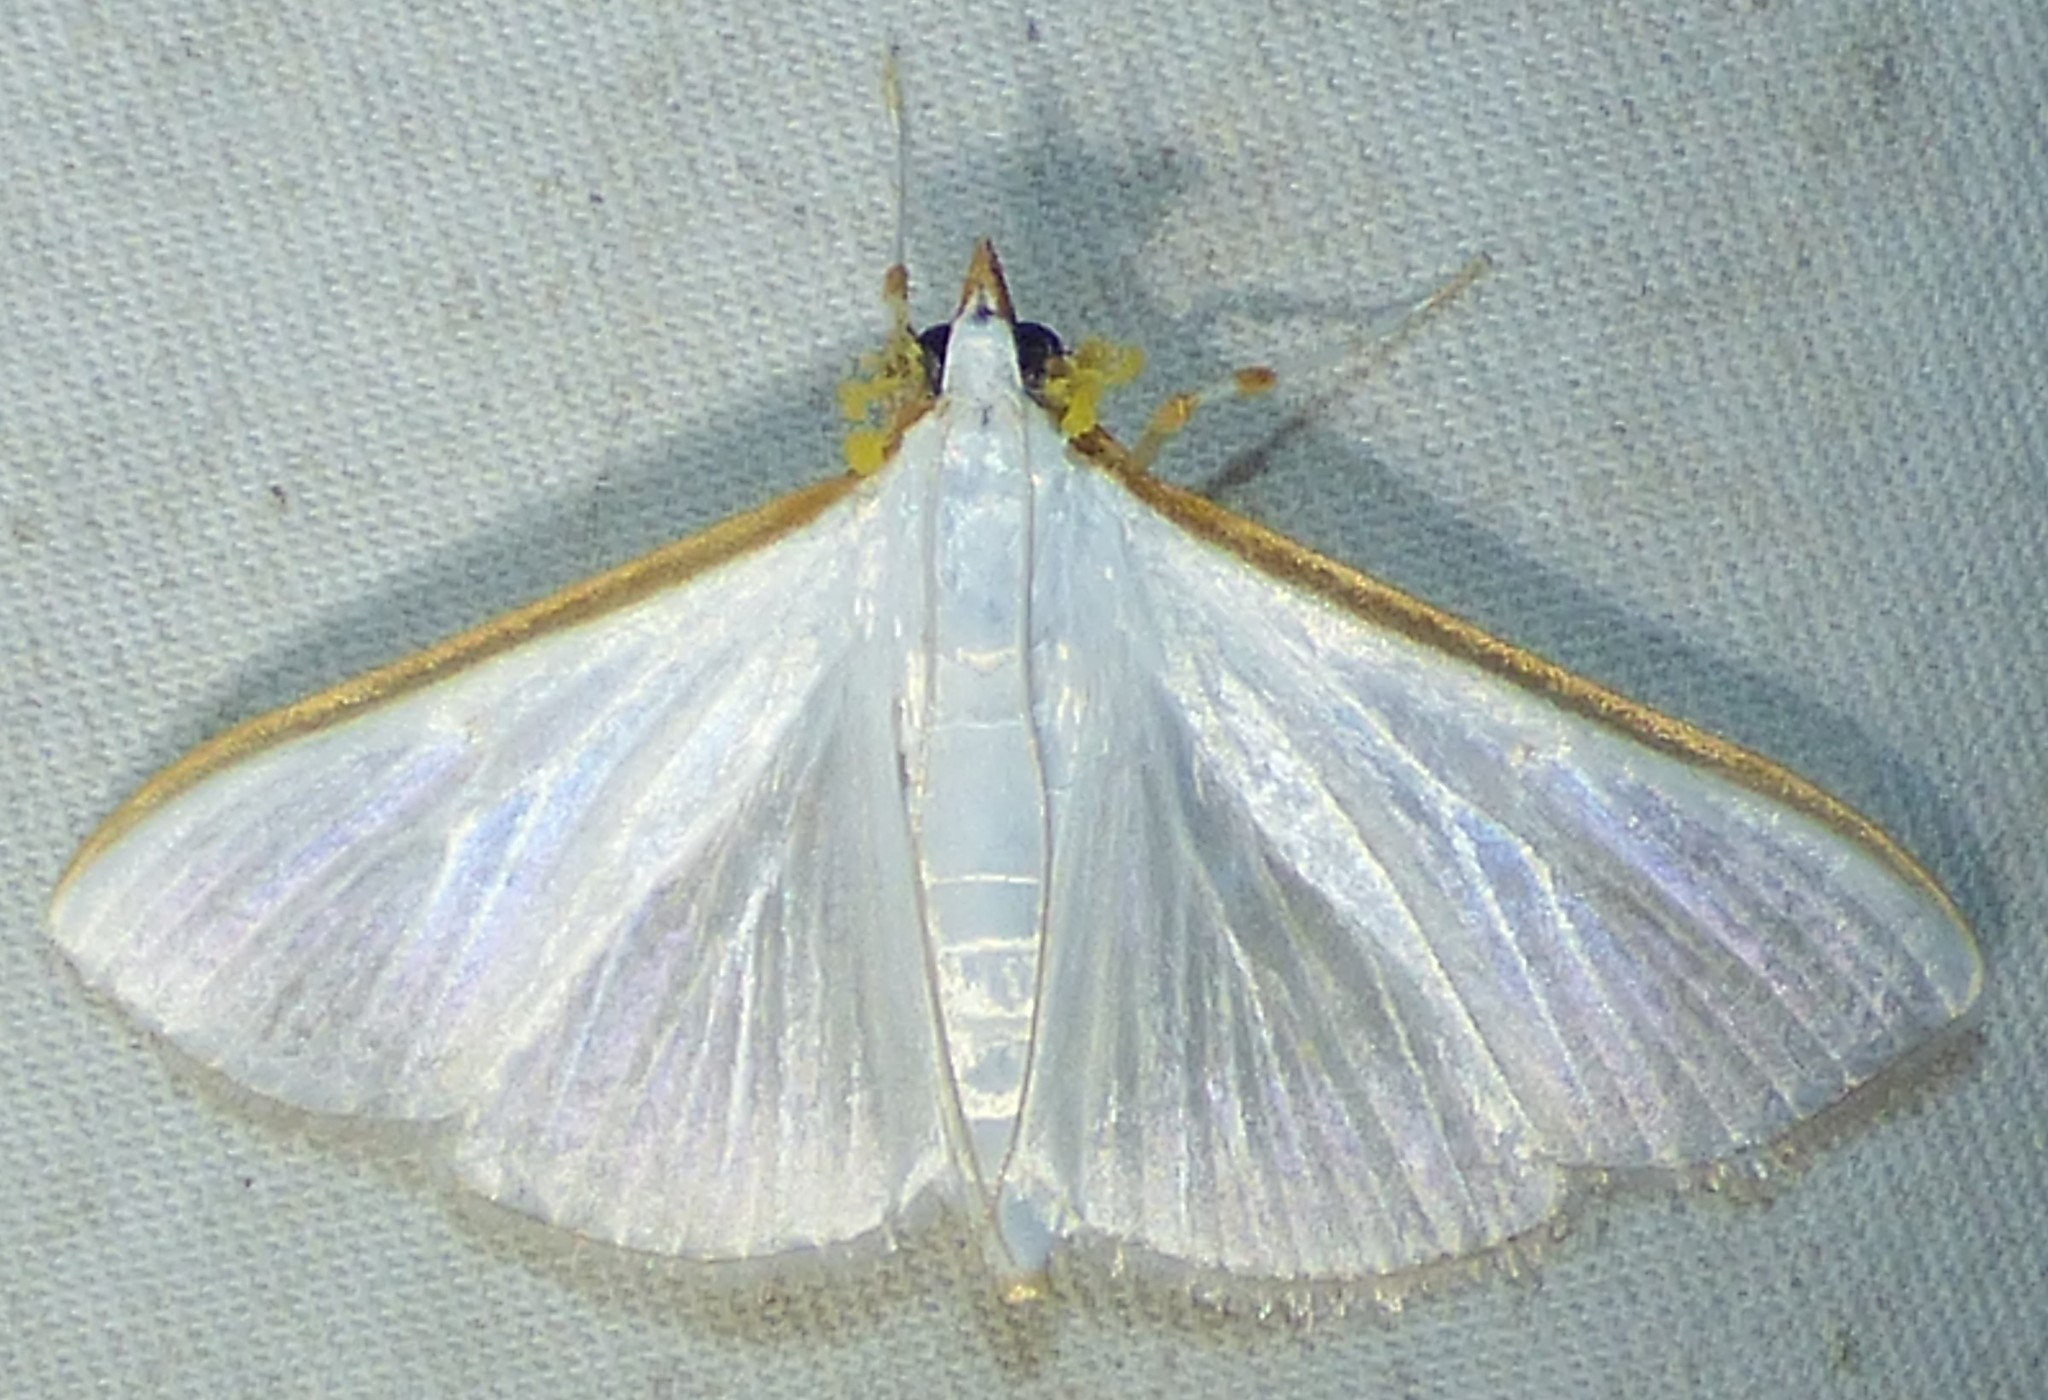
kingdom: Animalia
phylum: Arthropoda
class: Insecta
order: Lepidoptera
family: Crambidae
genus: Diaphania
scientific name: Diaphania costata
